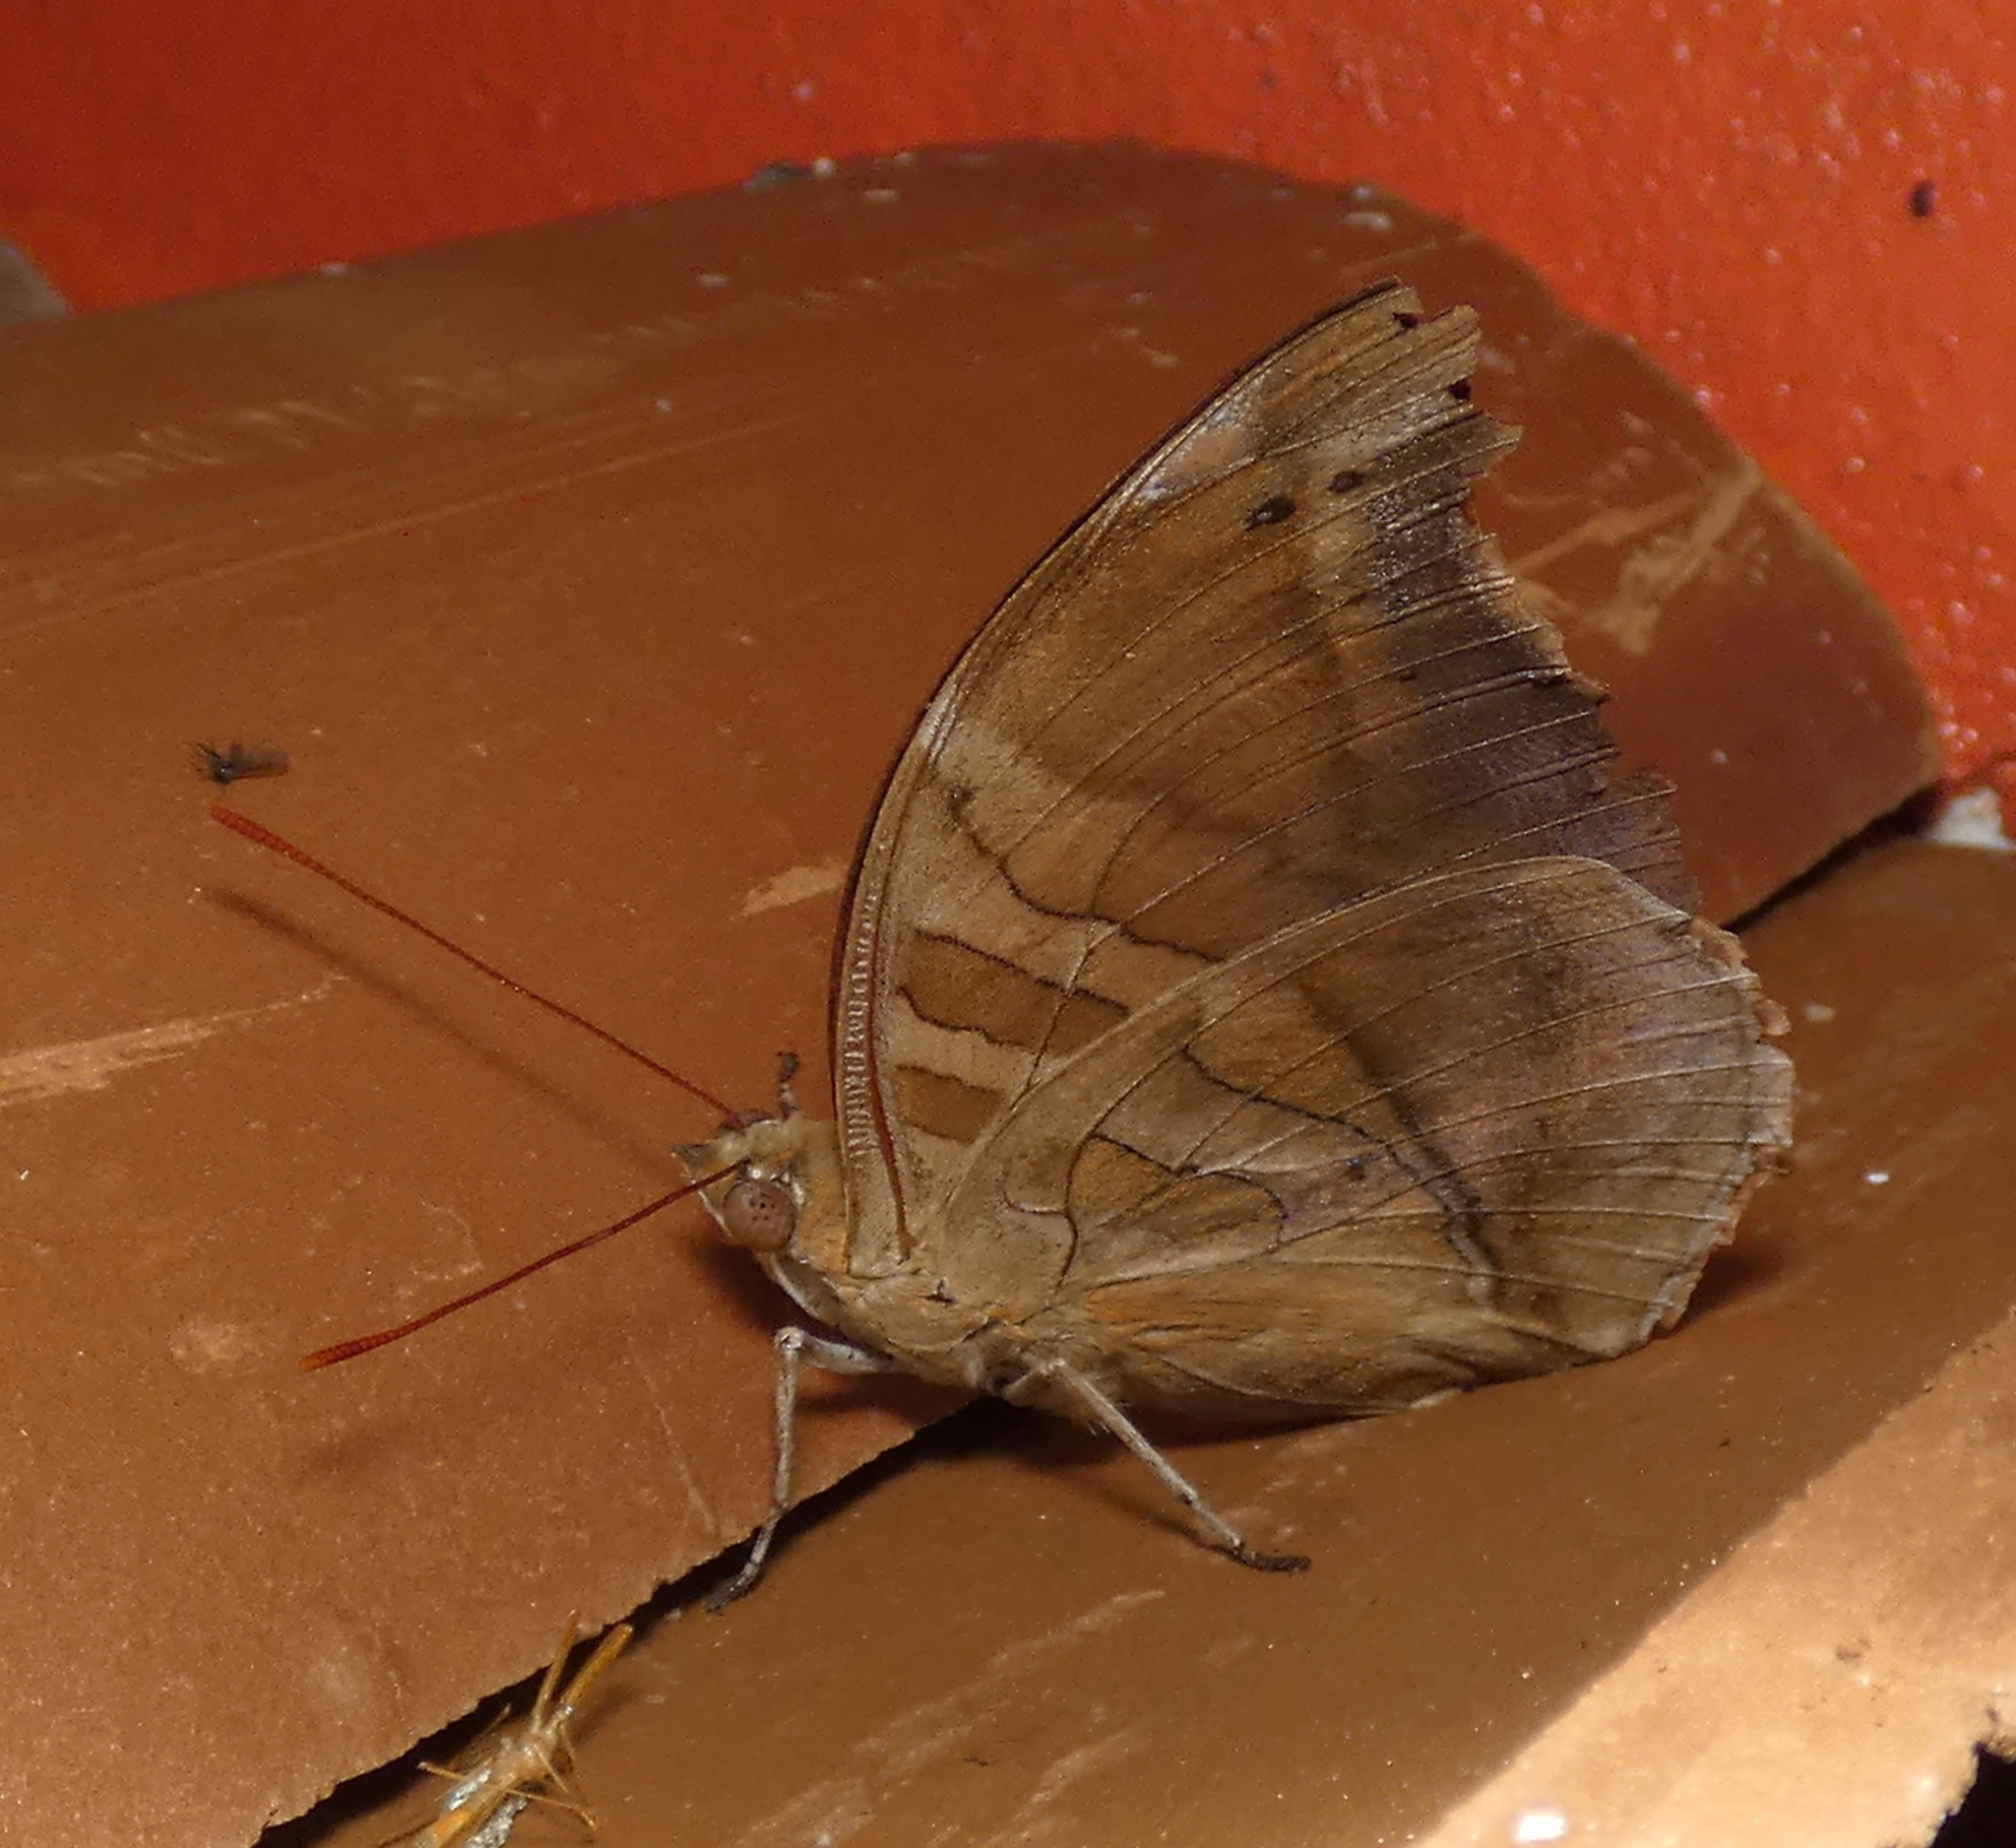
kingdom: Animalia
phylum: Arthropoda
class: Insecta
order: Lepidoptera
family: Nymphalidae
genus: Historis
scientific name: Historis odius
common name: Orion cecropian
